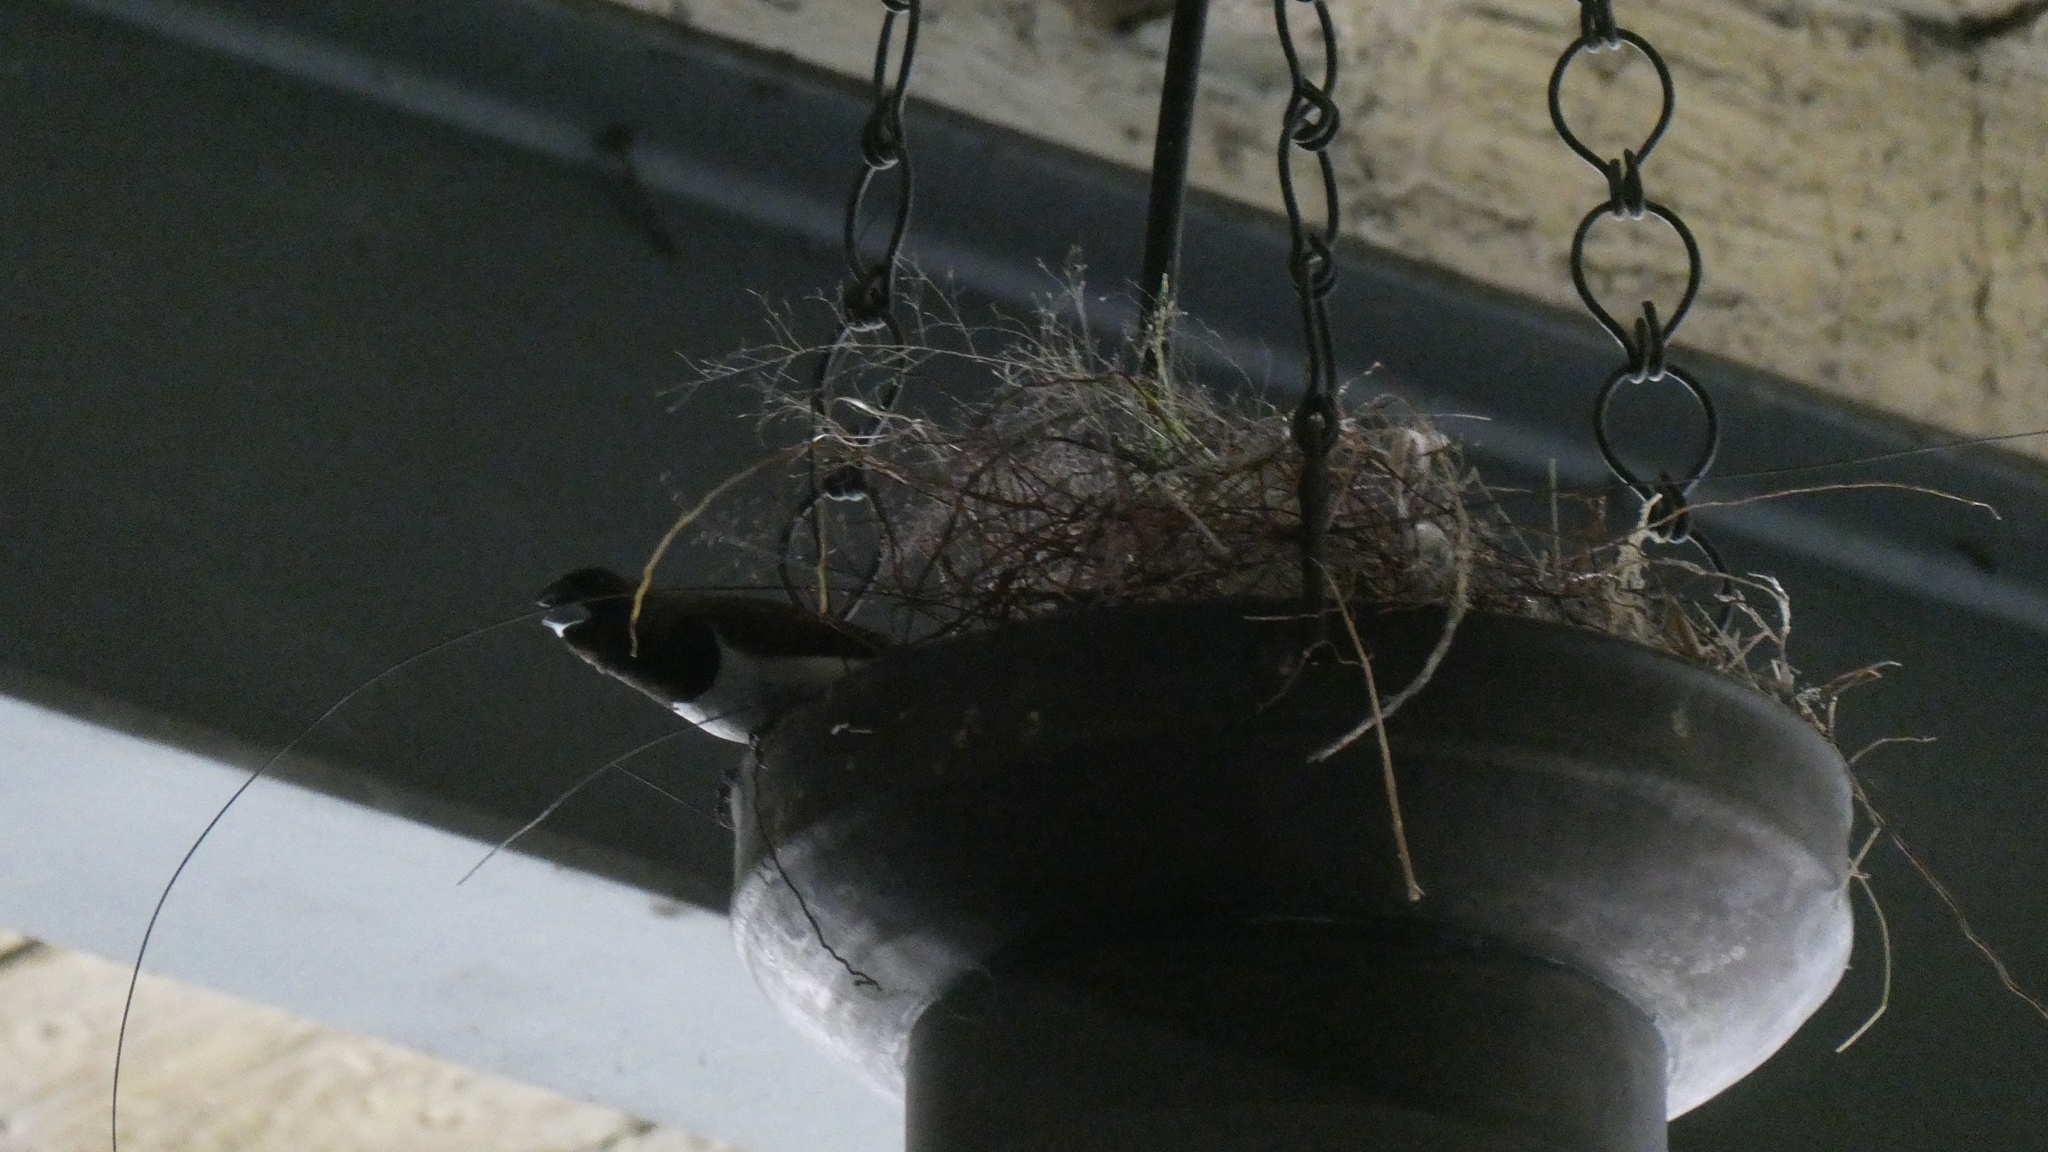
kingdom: Animalia
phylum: Chordata
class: Aves
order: Passeriformes
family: Estrildidae
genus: Lonchura
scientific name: Lonchura leucogastroides
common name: Javan munia
